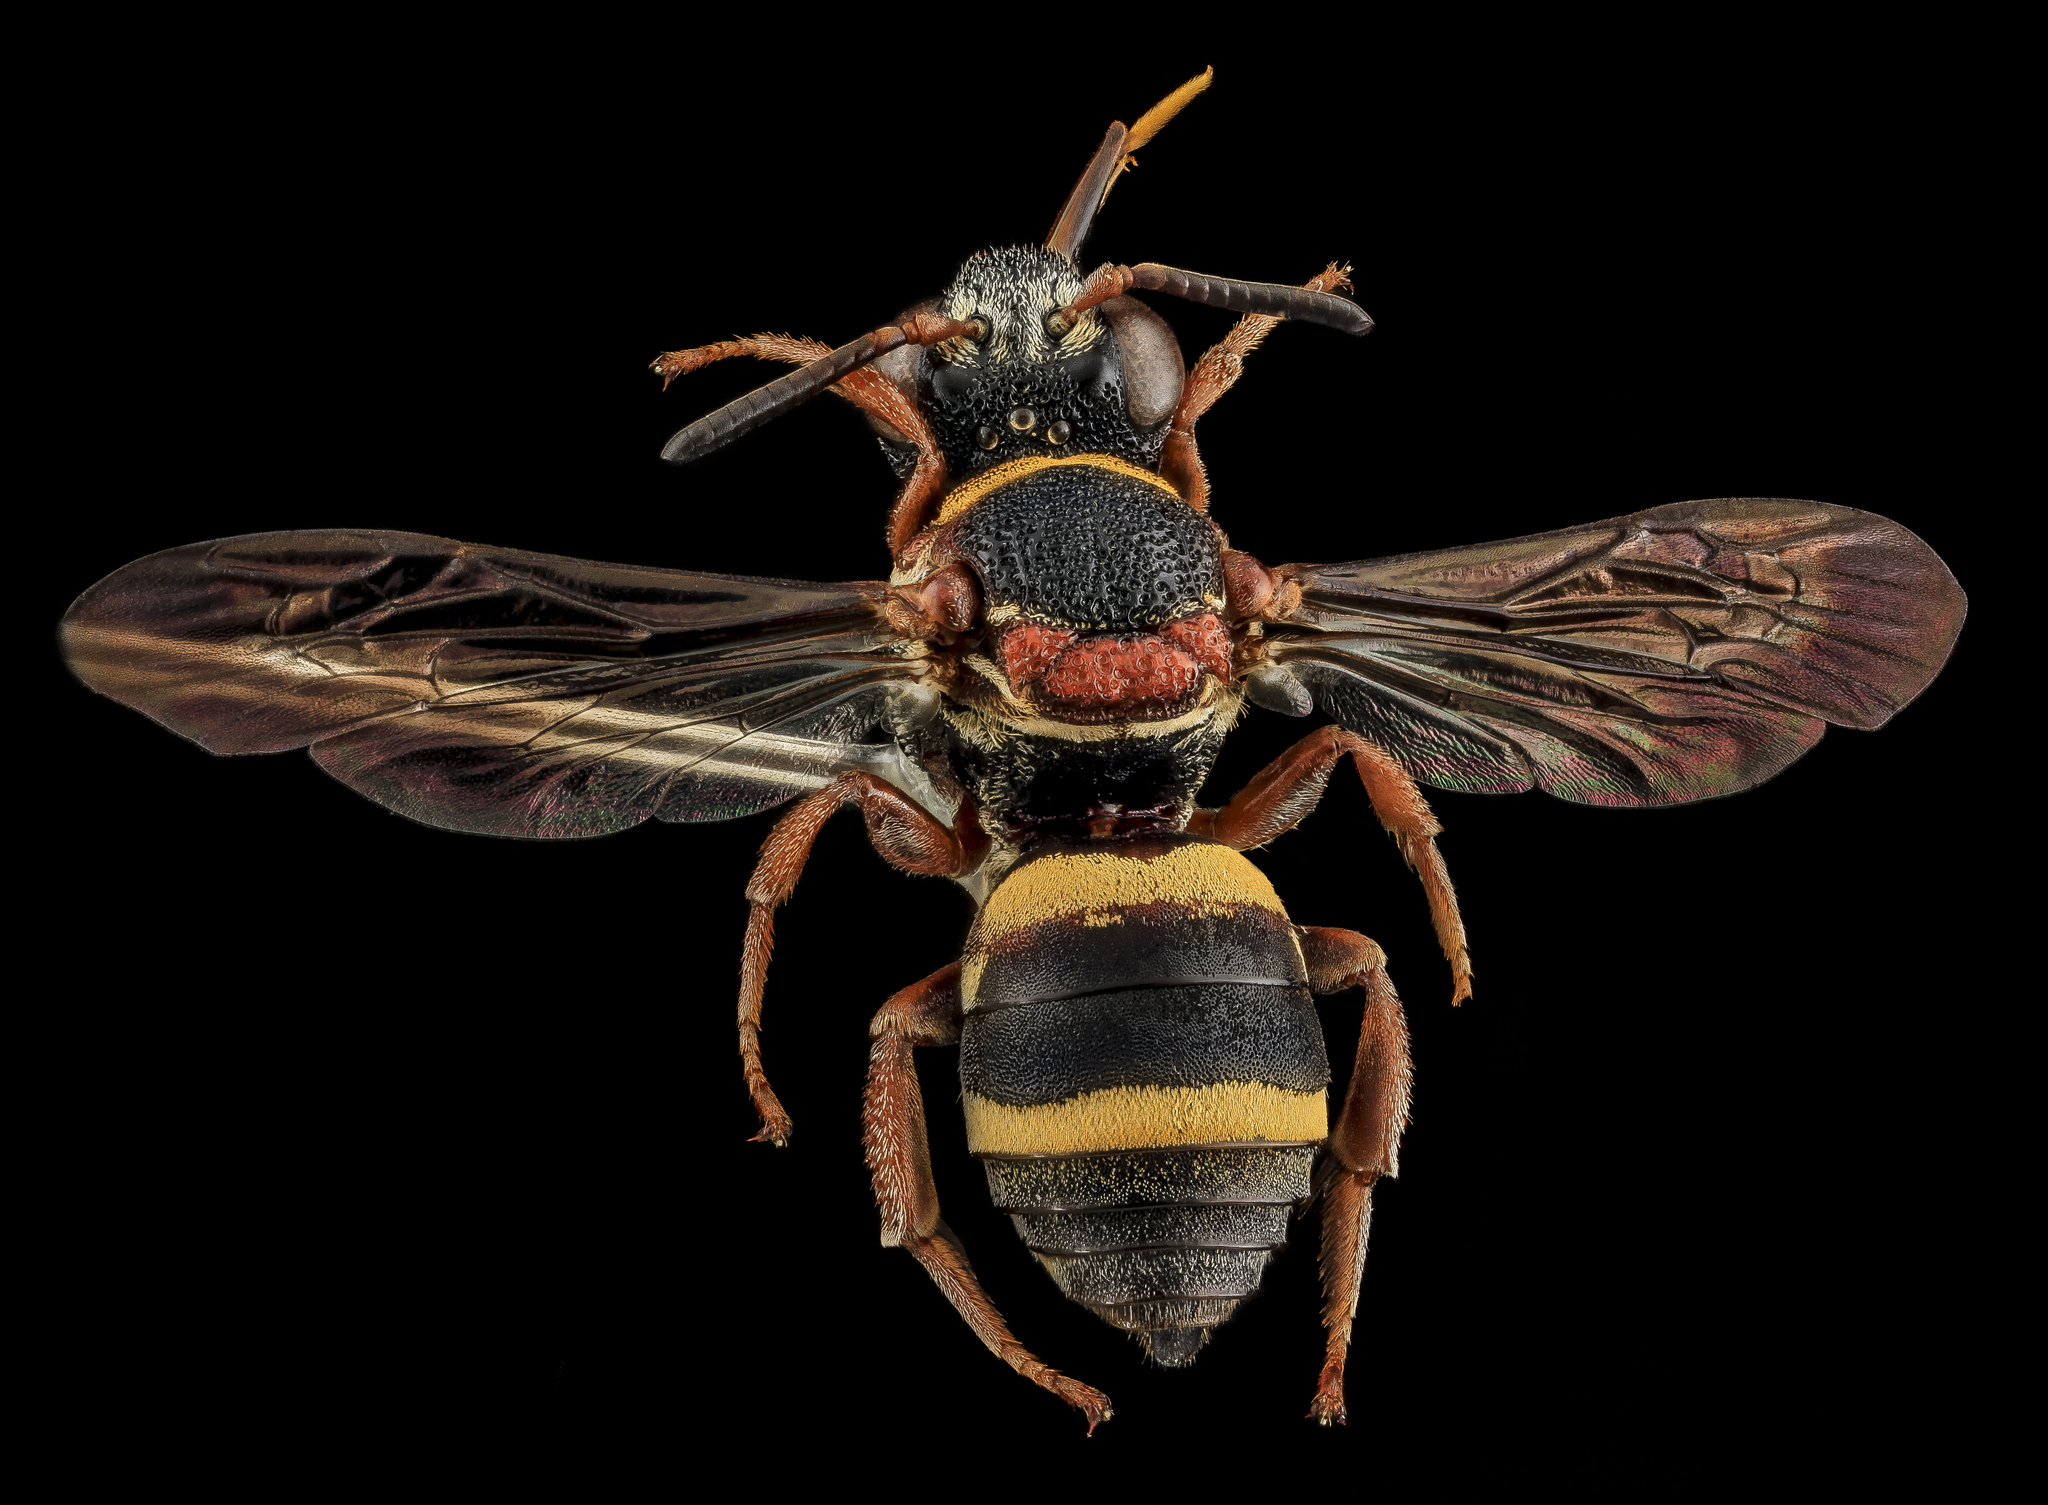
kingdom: Animalia
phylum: Arthropoda
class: Insecta
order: Hymenoptera
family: Apidae
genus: Epeolus
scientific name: Epeolus bifasciatus
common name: Two-banded cellophane-cuckoo
